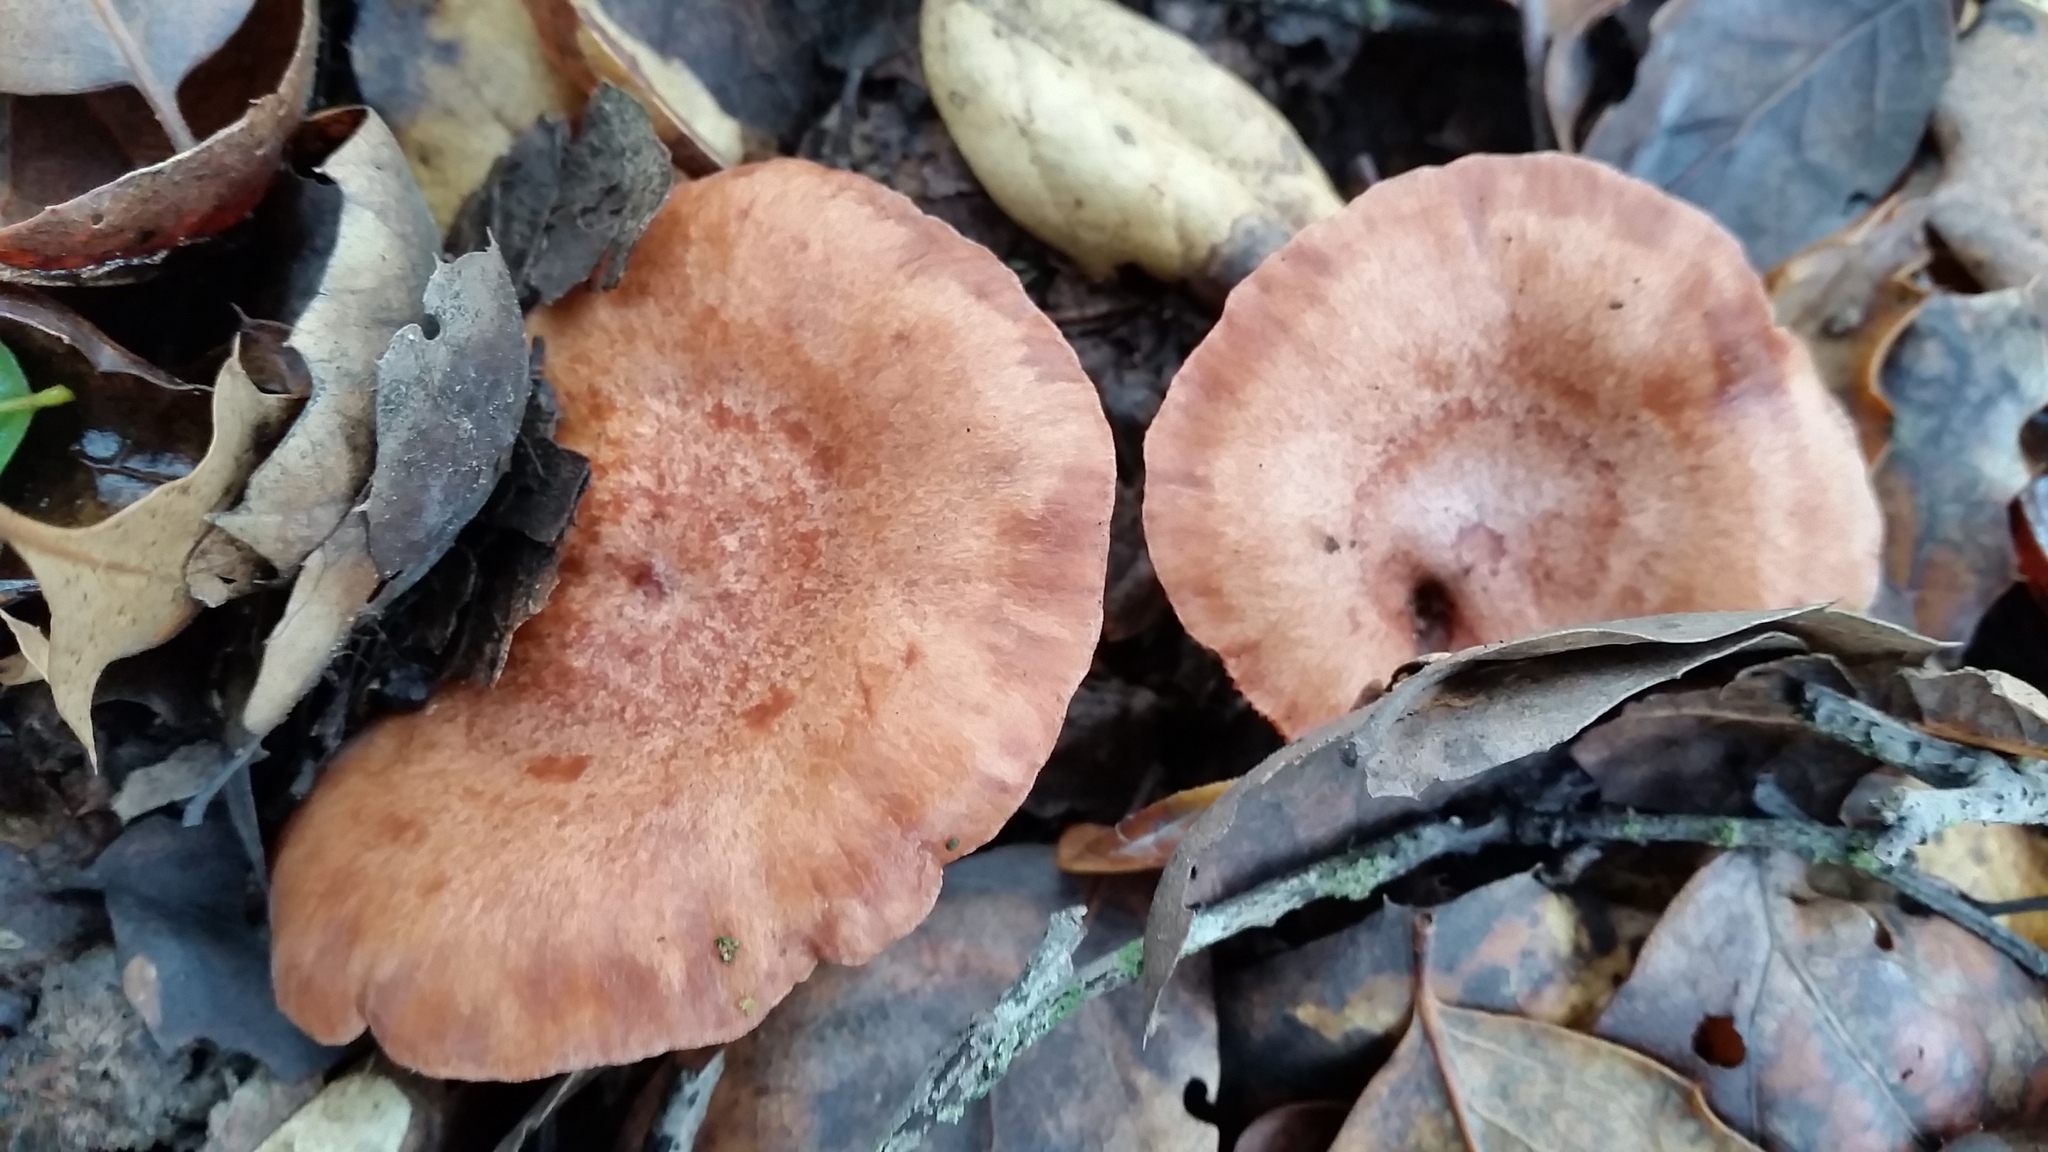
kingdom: Fungi
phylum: Basidiomycota
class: Agaricomycetes
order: Russulales
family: Russulaceae
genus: Lactarius
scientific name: Lactarius xanthogalactus
